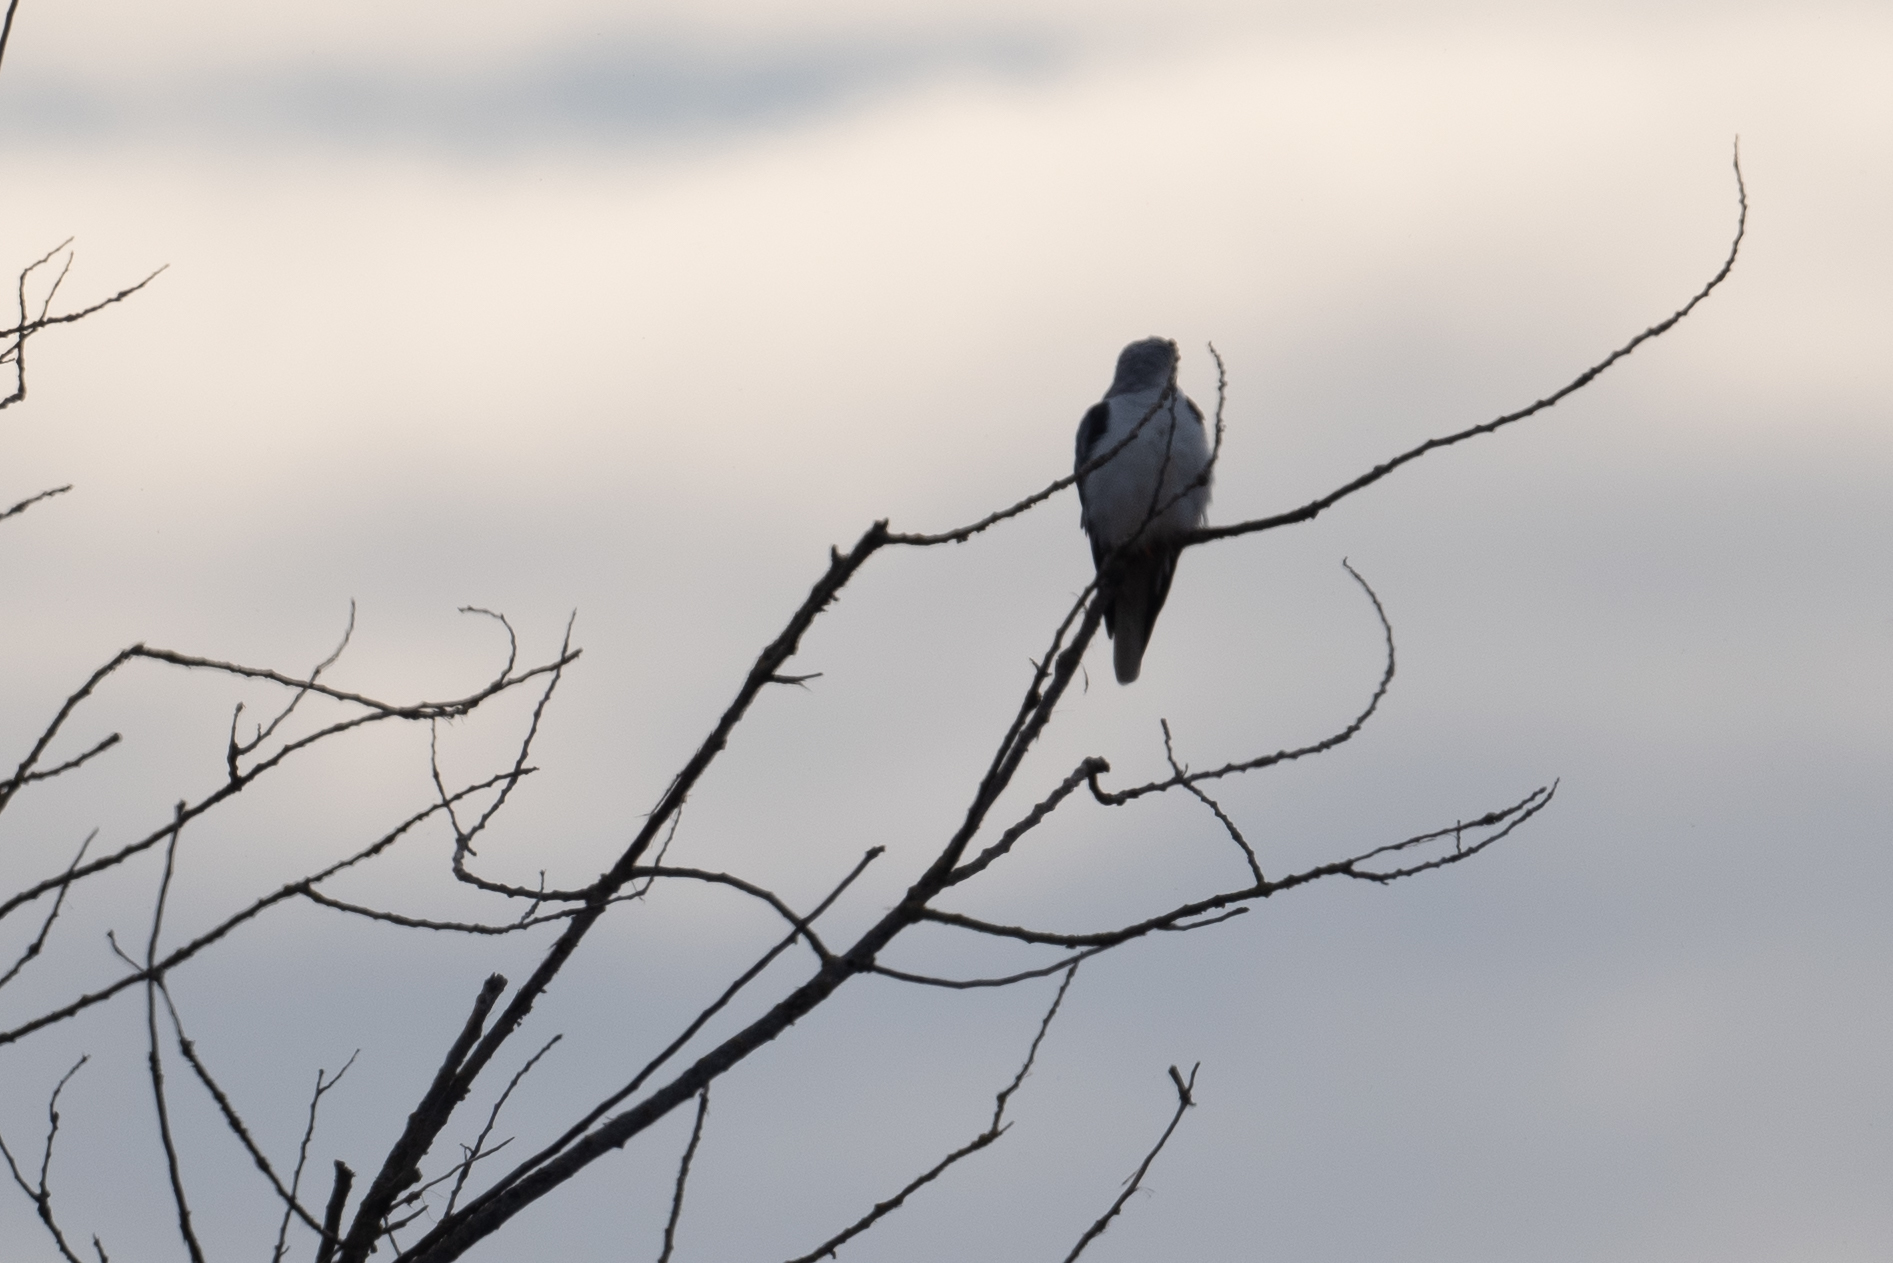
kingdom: Animalia
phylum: Chordata
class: Aves
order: Accipitriformes
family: Accipitridae
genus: Elanus
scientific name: Elanus leucurus
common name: White-tailed kite
